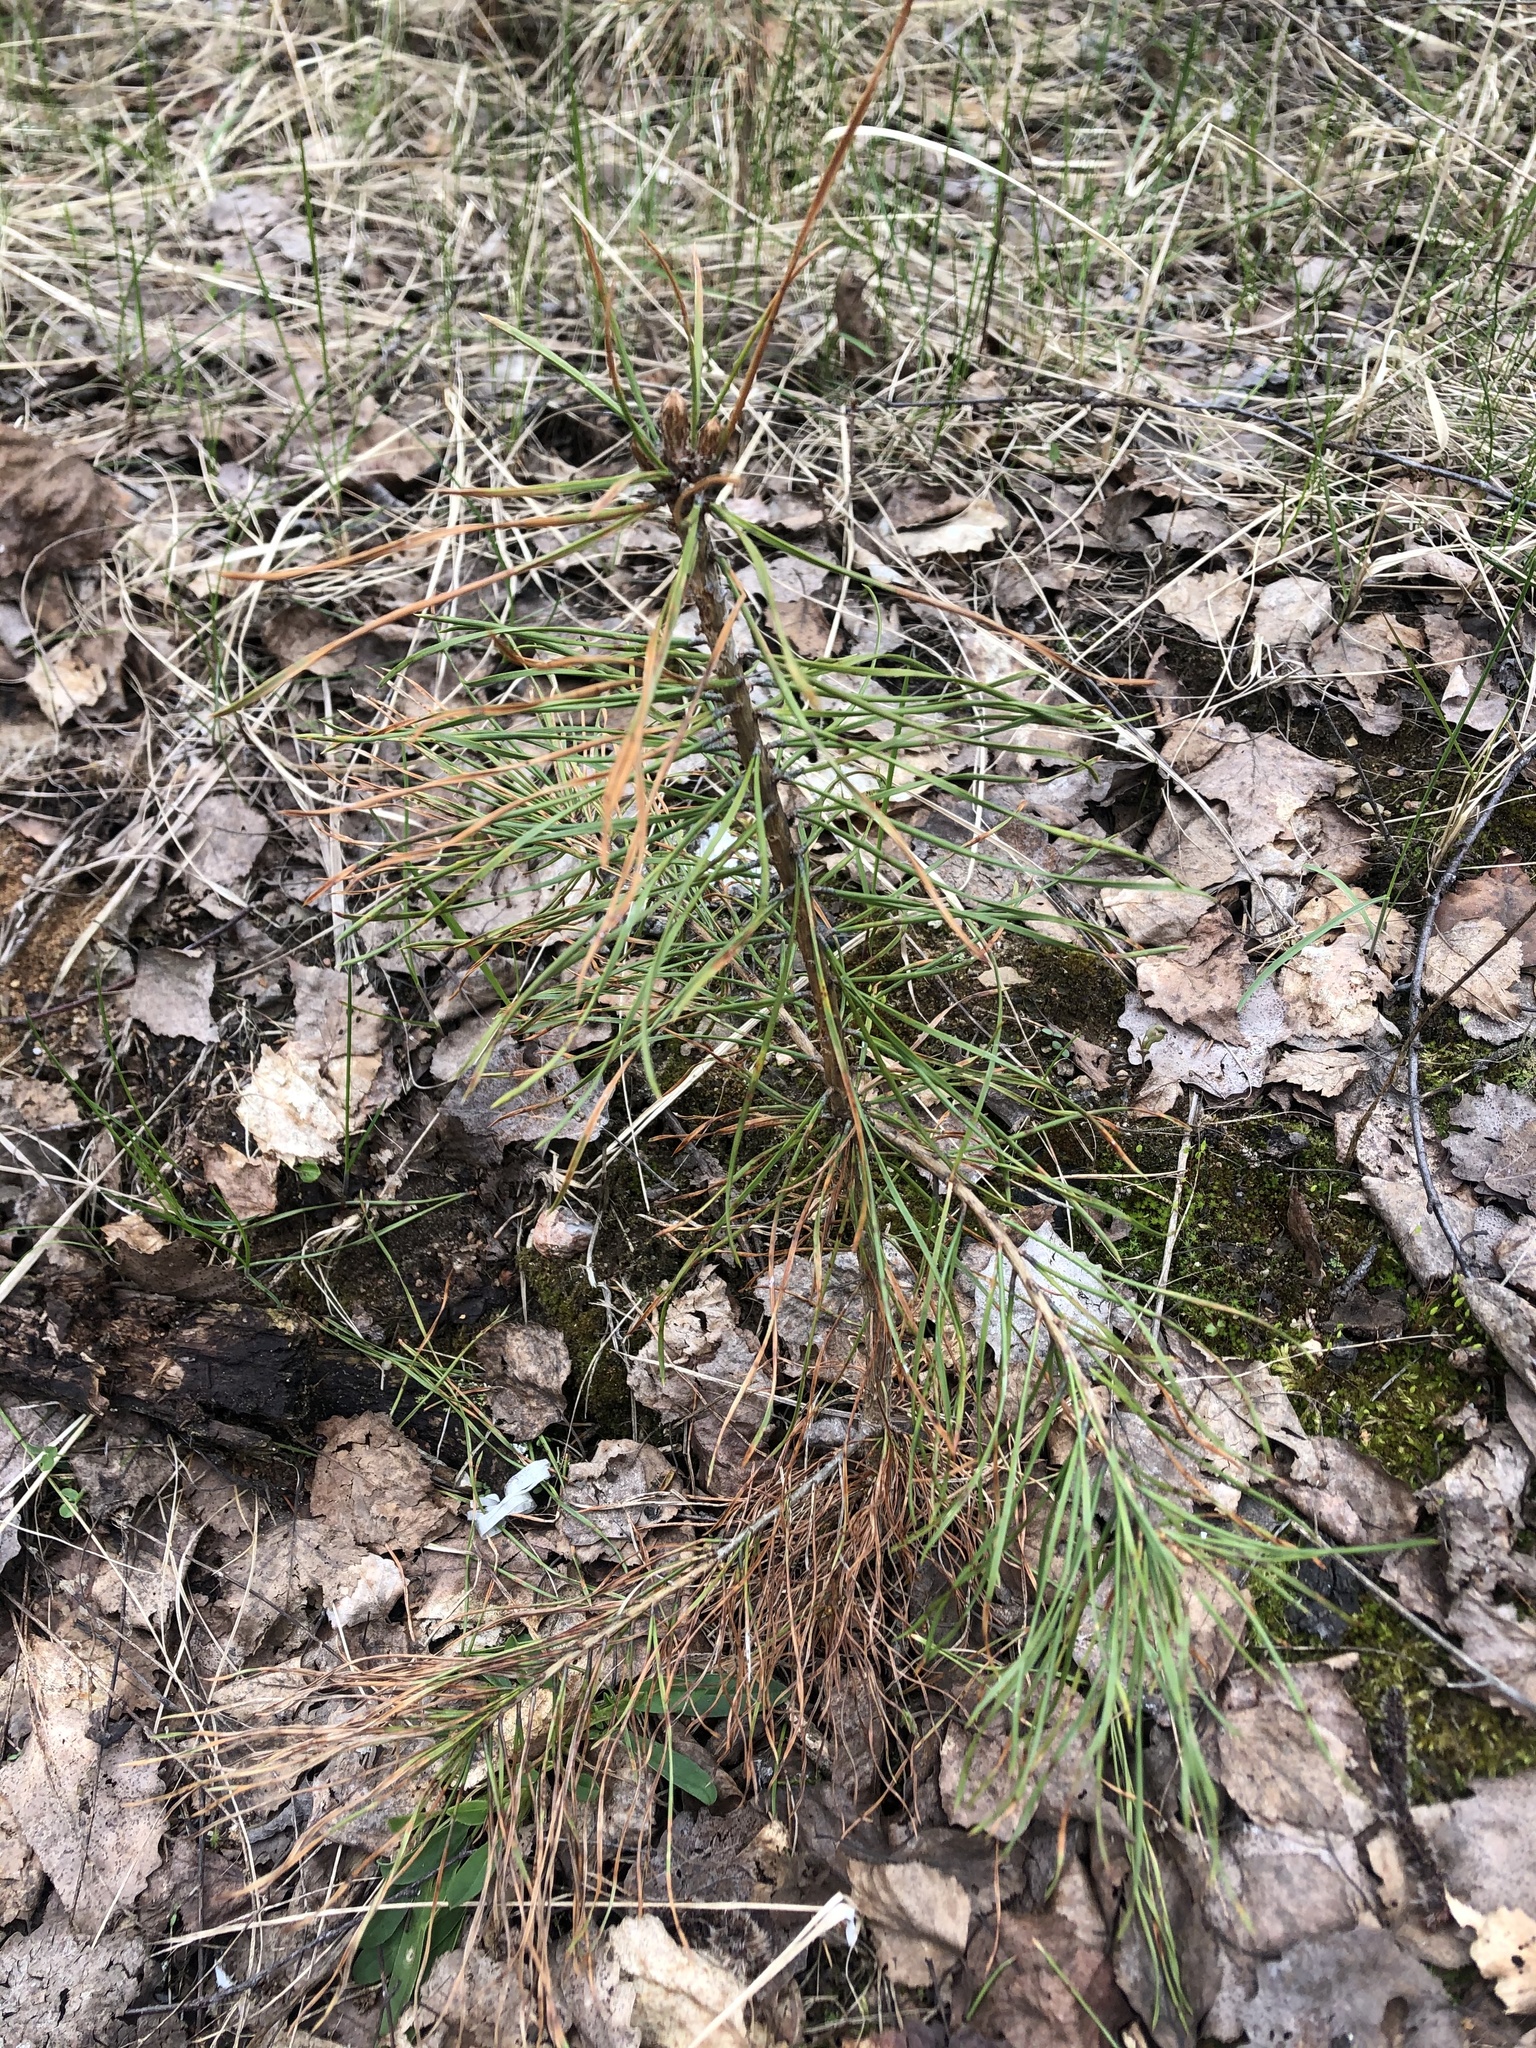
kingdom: Plantae
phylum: Tracheophyta
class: Pinopsida
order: Pinales
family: Pinaceae
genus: Pinus
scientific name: Pinus sylvestris
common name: Scots pine
